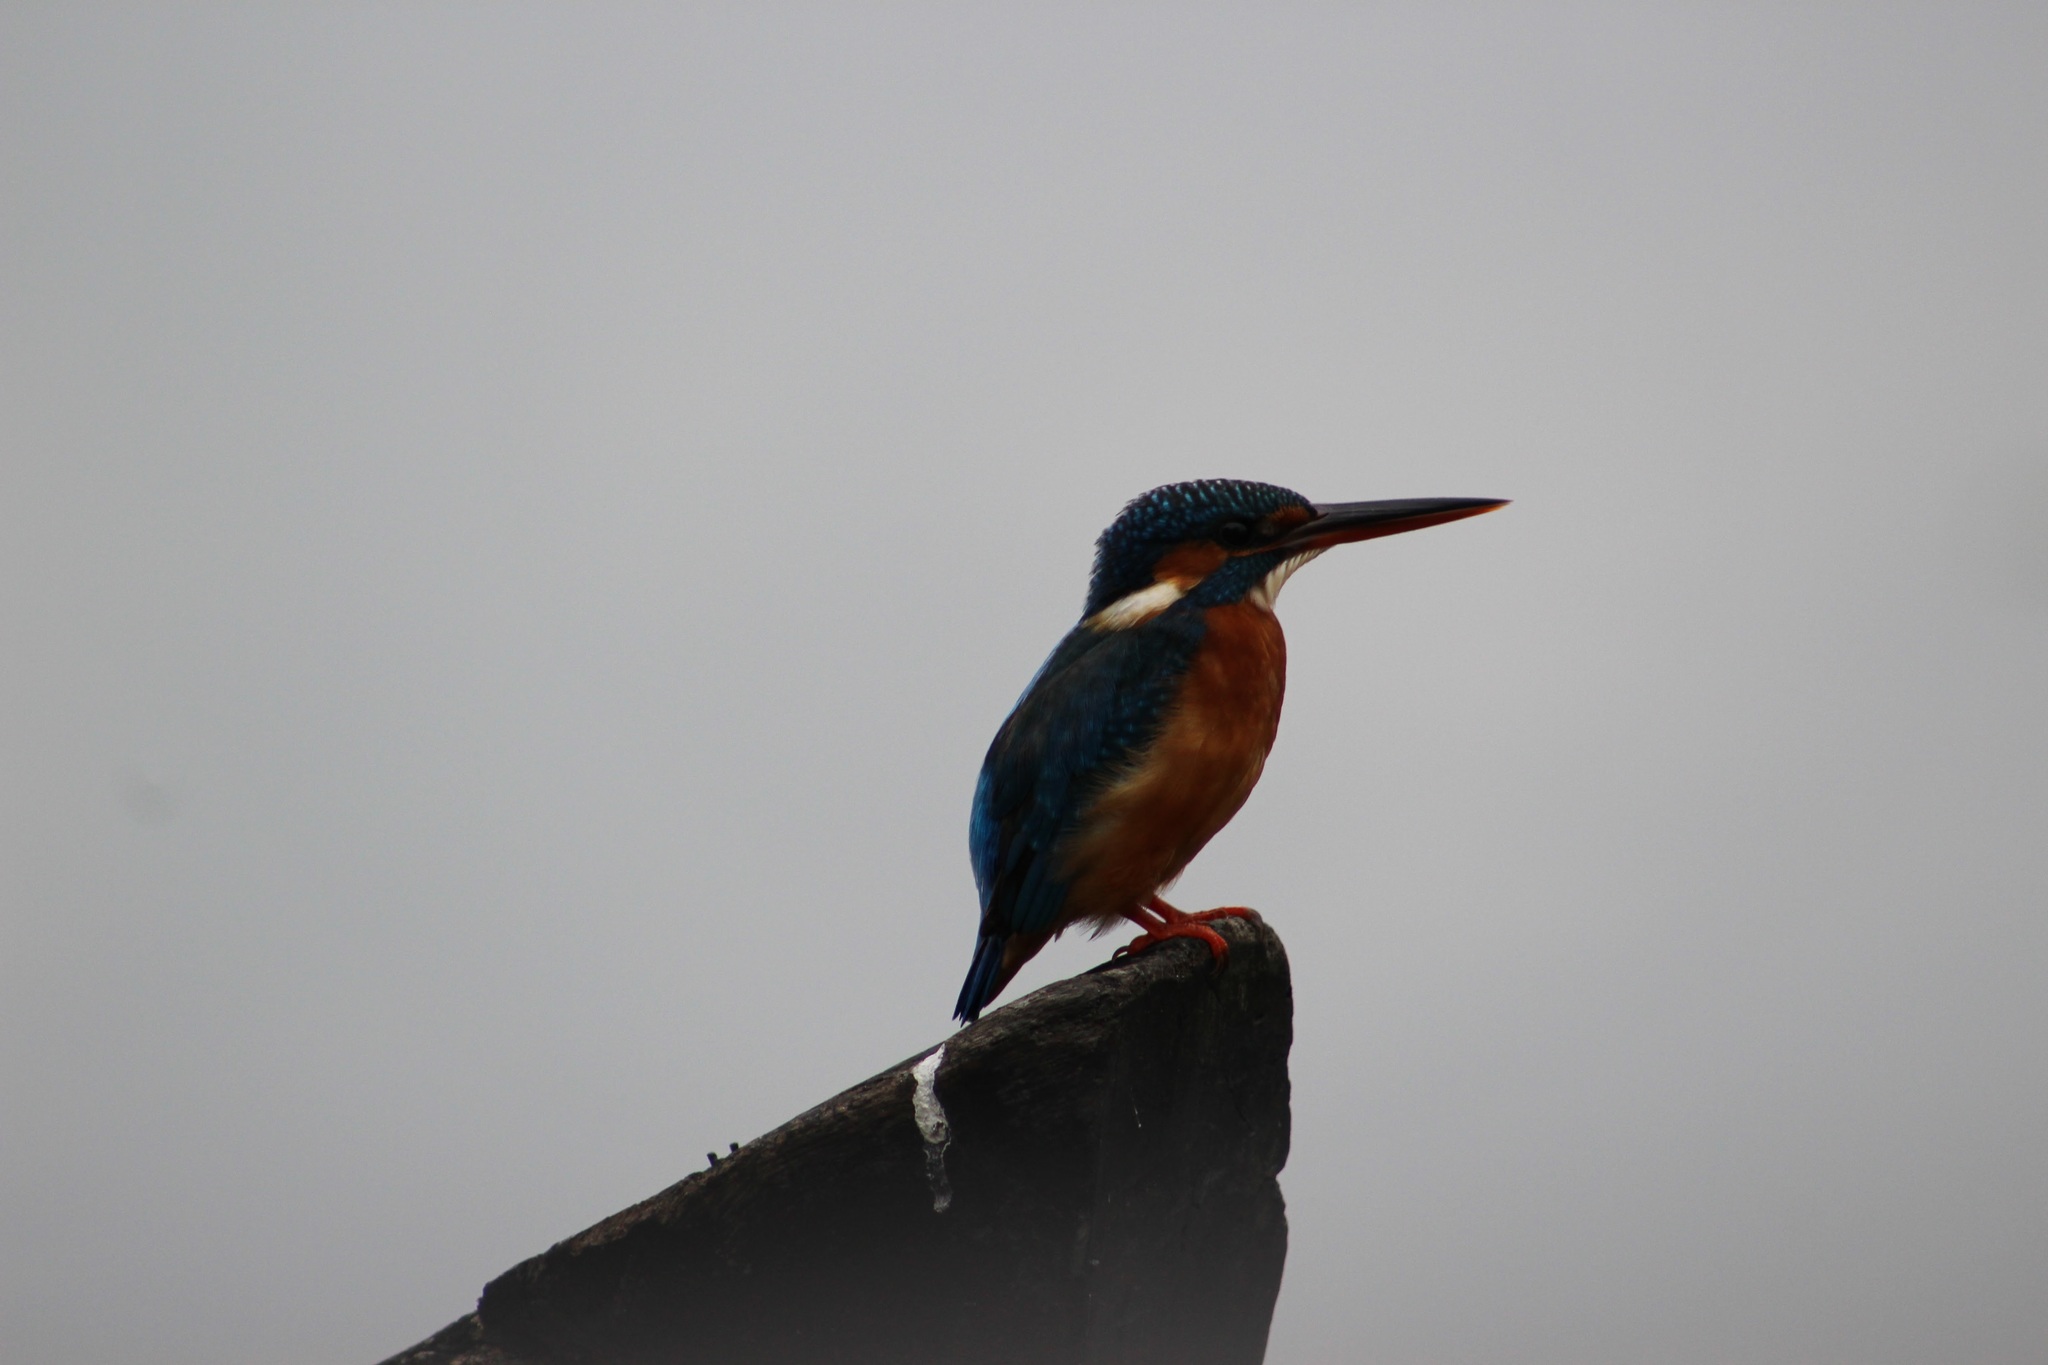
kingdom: Animalia
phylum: Chordata
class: Aves
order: Coraciiformes
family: Alcedinidae
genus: Alcedo
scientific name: Alcedo atthis
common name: Common kingfisher
